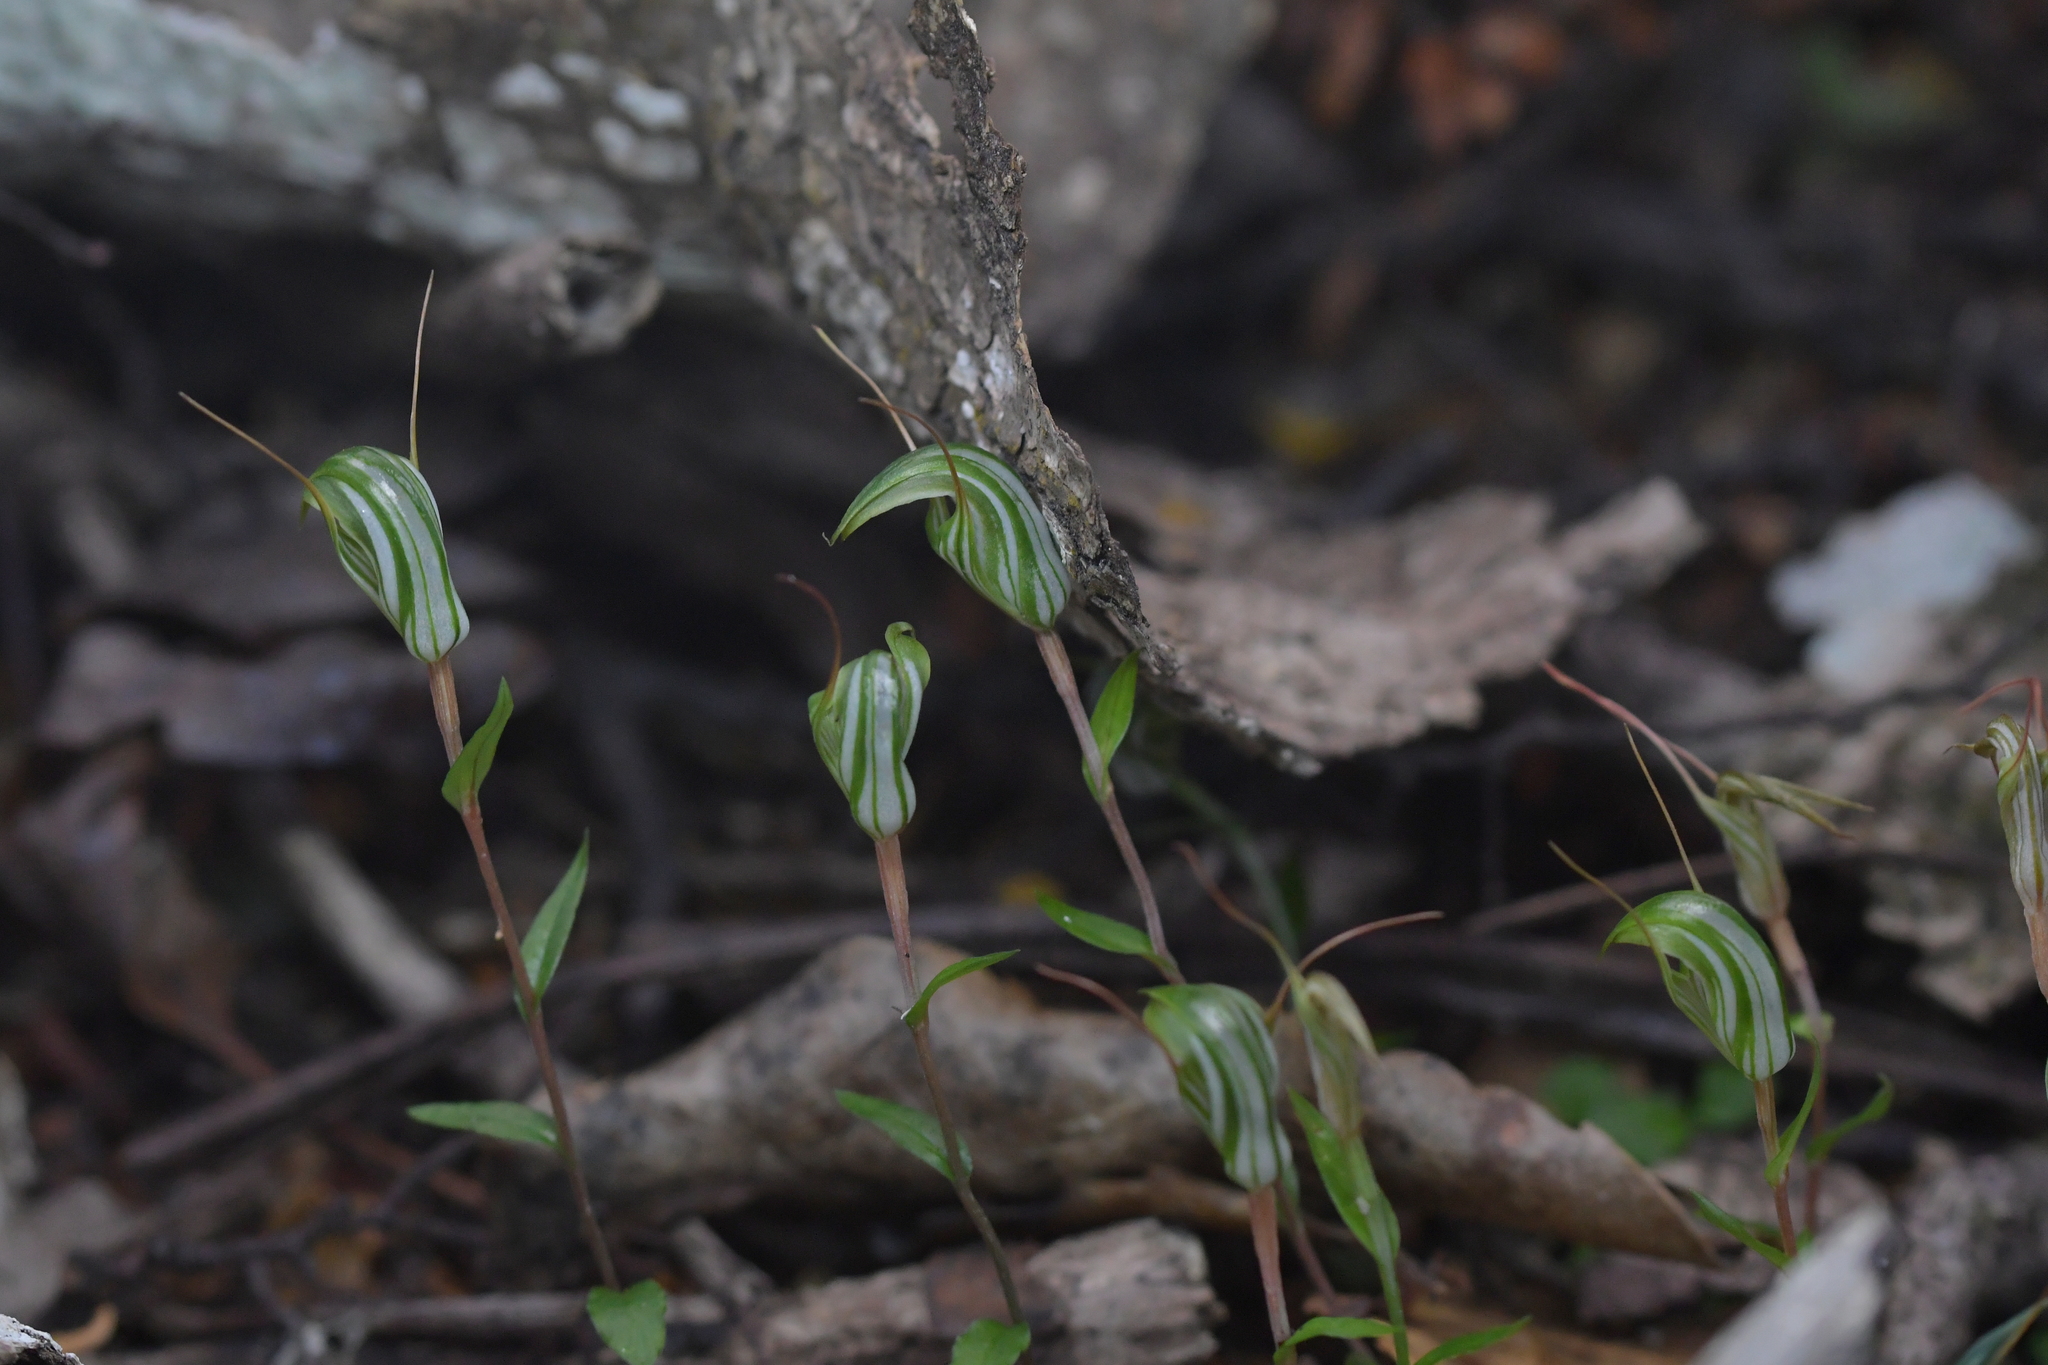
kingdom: Plantae
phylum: Tracheophyta
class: Liliopsida
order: Asparagales
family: Orchidaceae
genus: Pterostylis
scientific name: Pterostylis alobula
